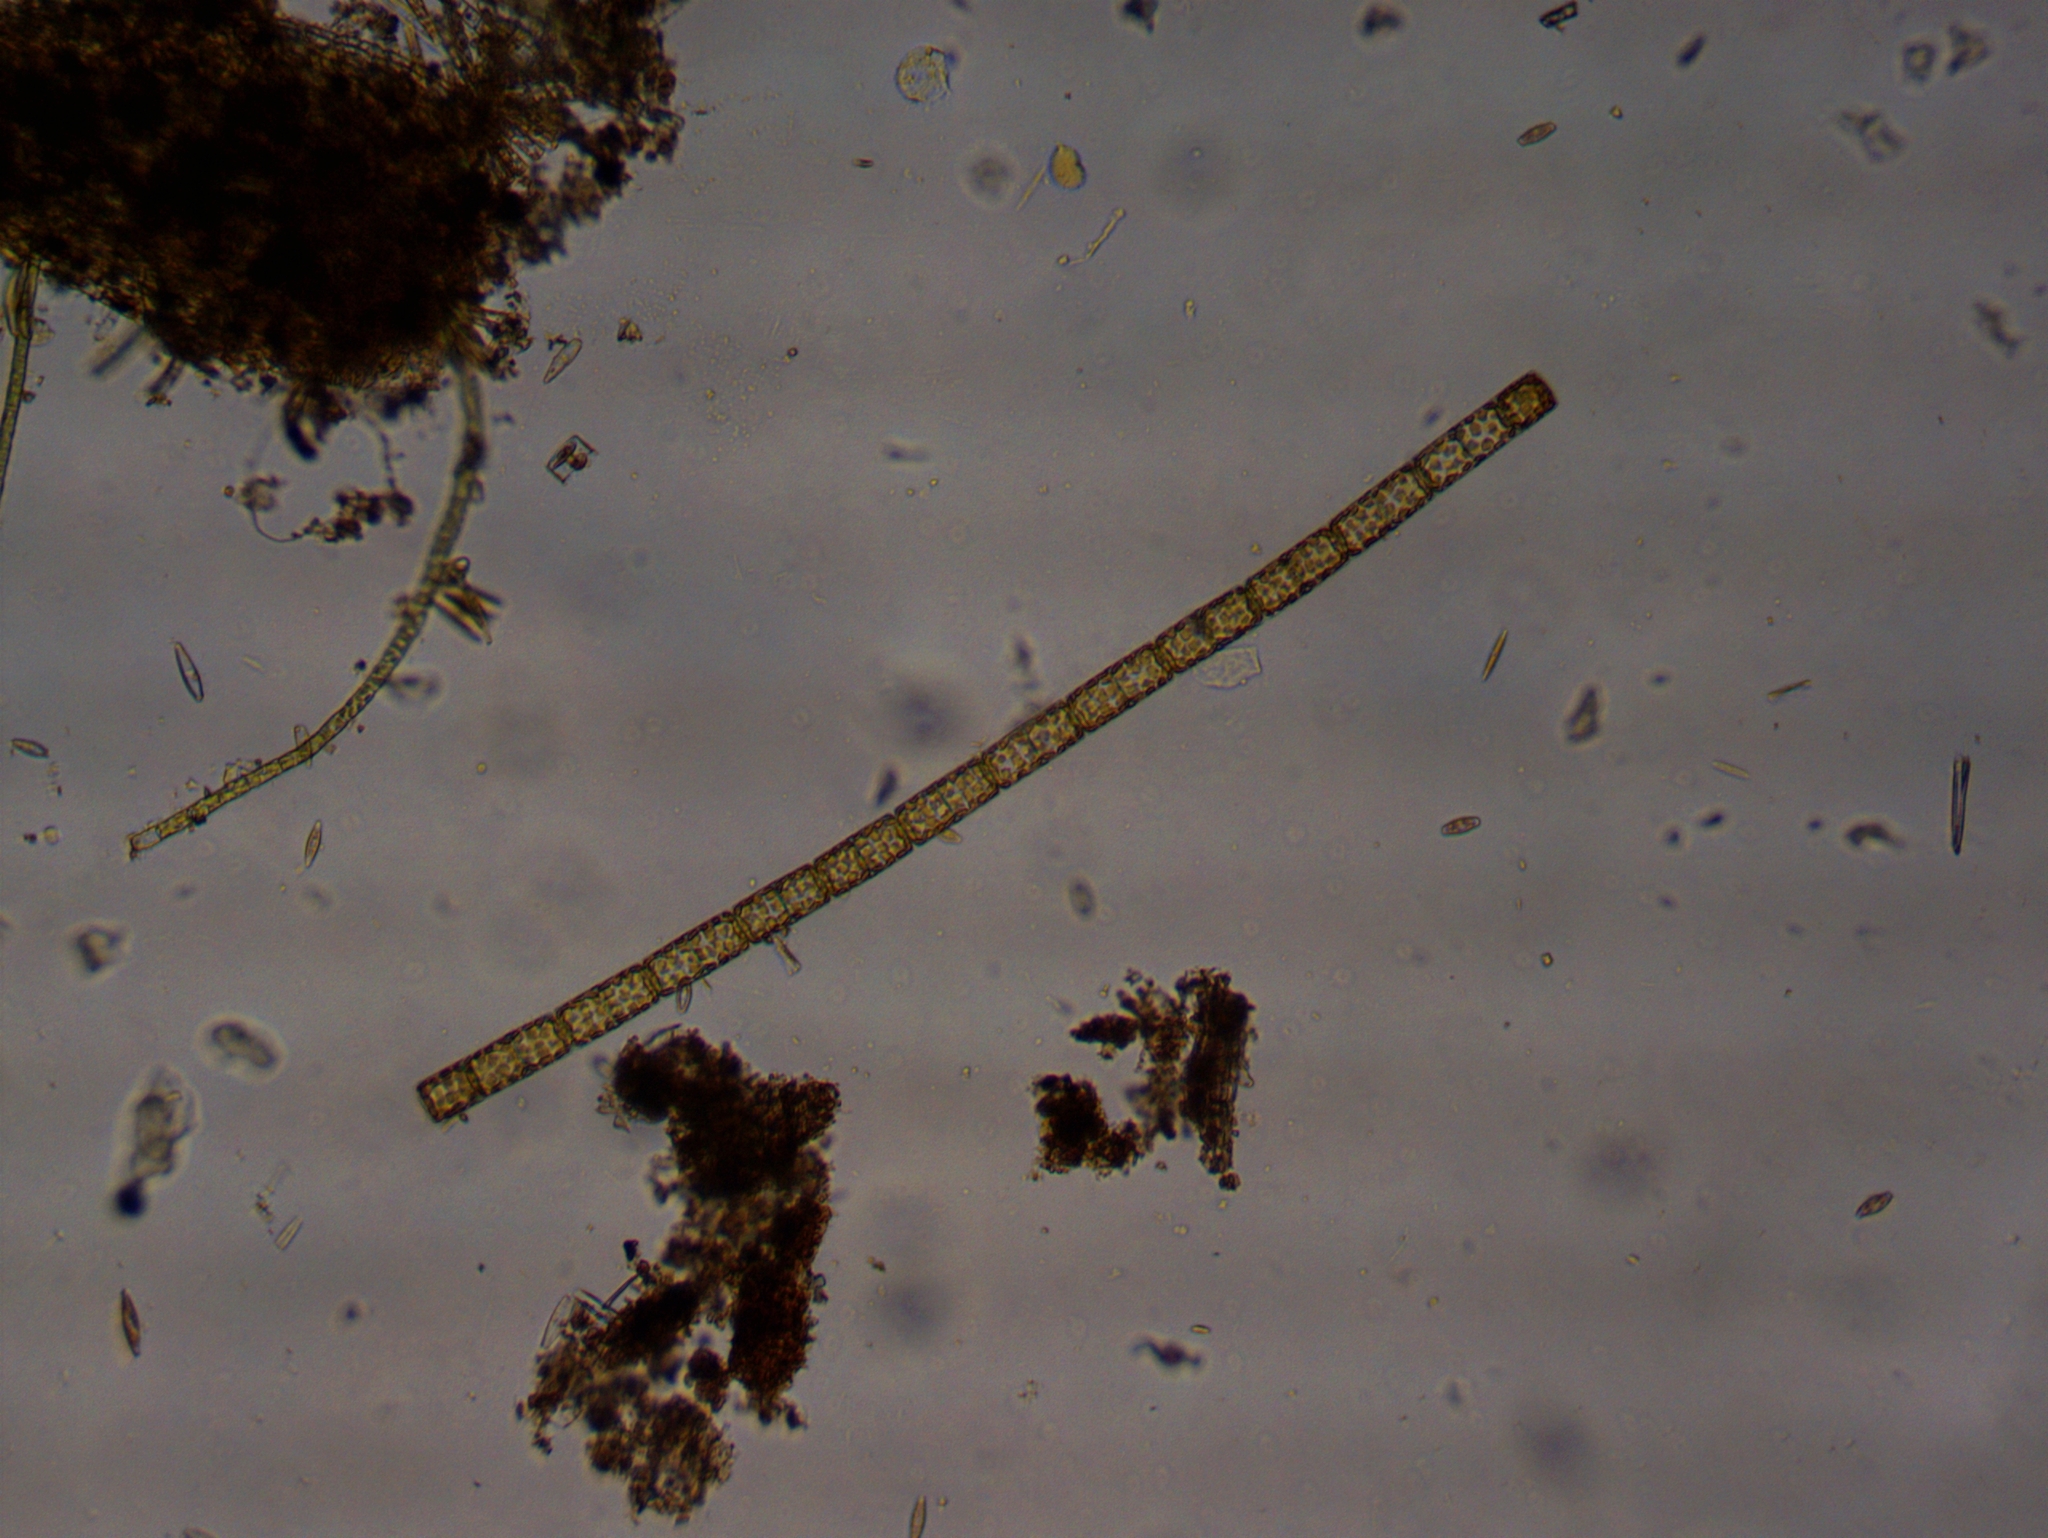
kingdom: Chromista
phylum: Ochrophyta
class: Bacillariophyceae
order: Melosirales
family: Melosiraceae
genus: Melosira
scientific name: Melosira varians
